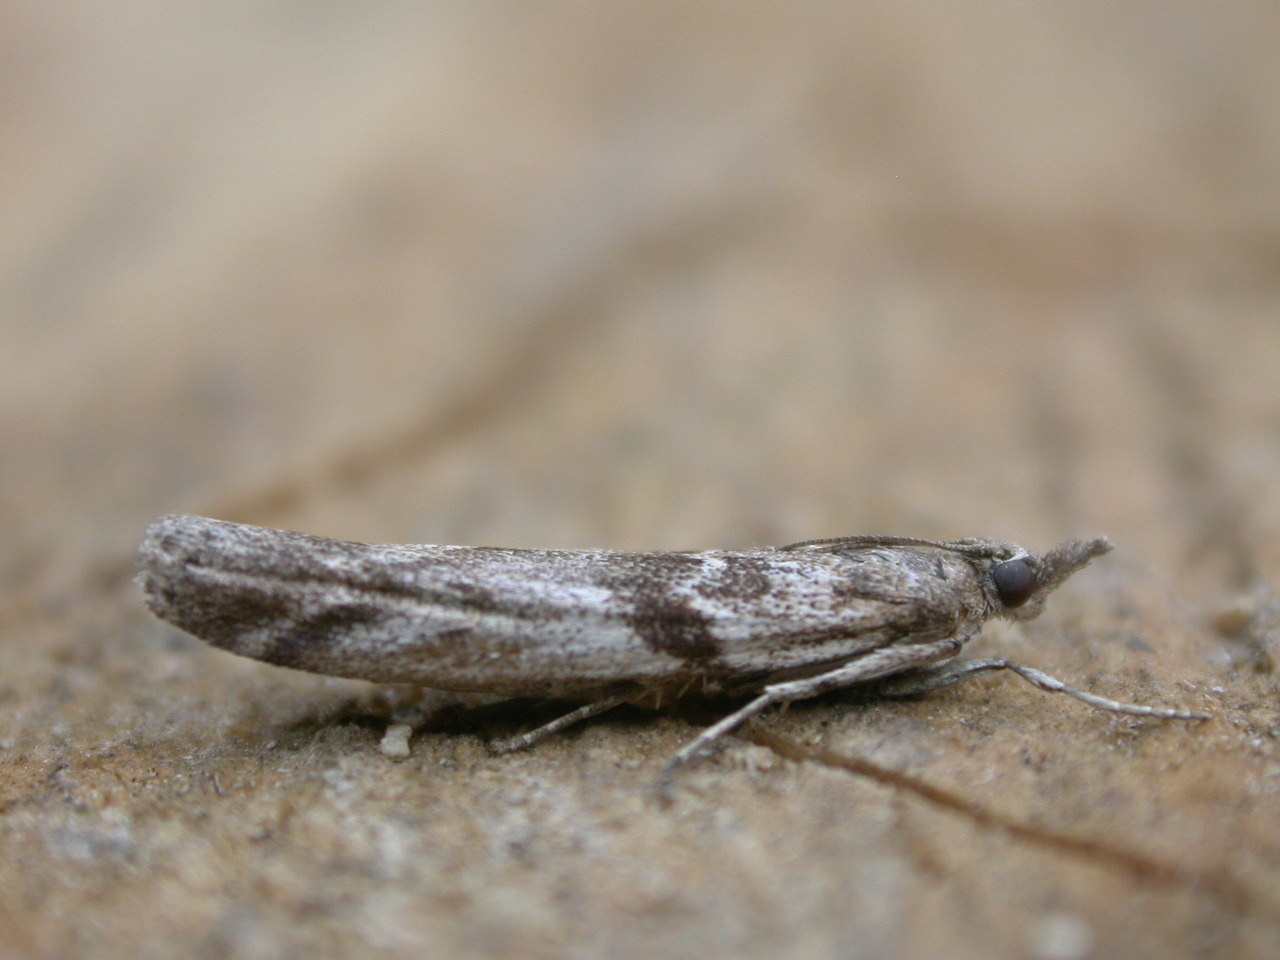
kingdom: Animalia
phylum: Arthropoda
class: Insecta
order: Lepidoptera
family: Pyralidae
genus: Zophodia
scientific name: Zophodia convolutella
